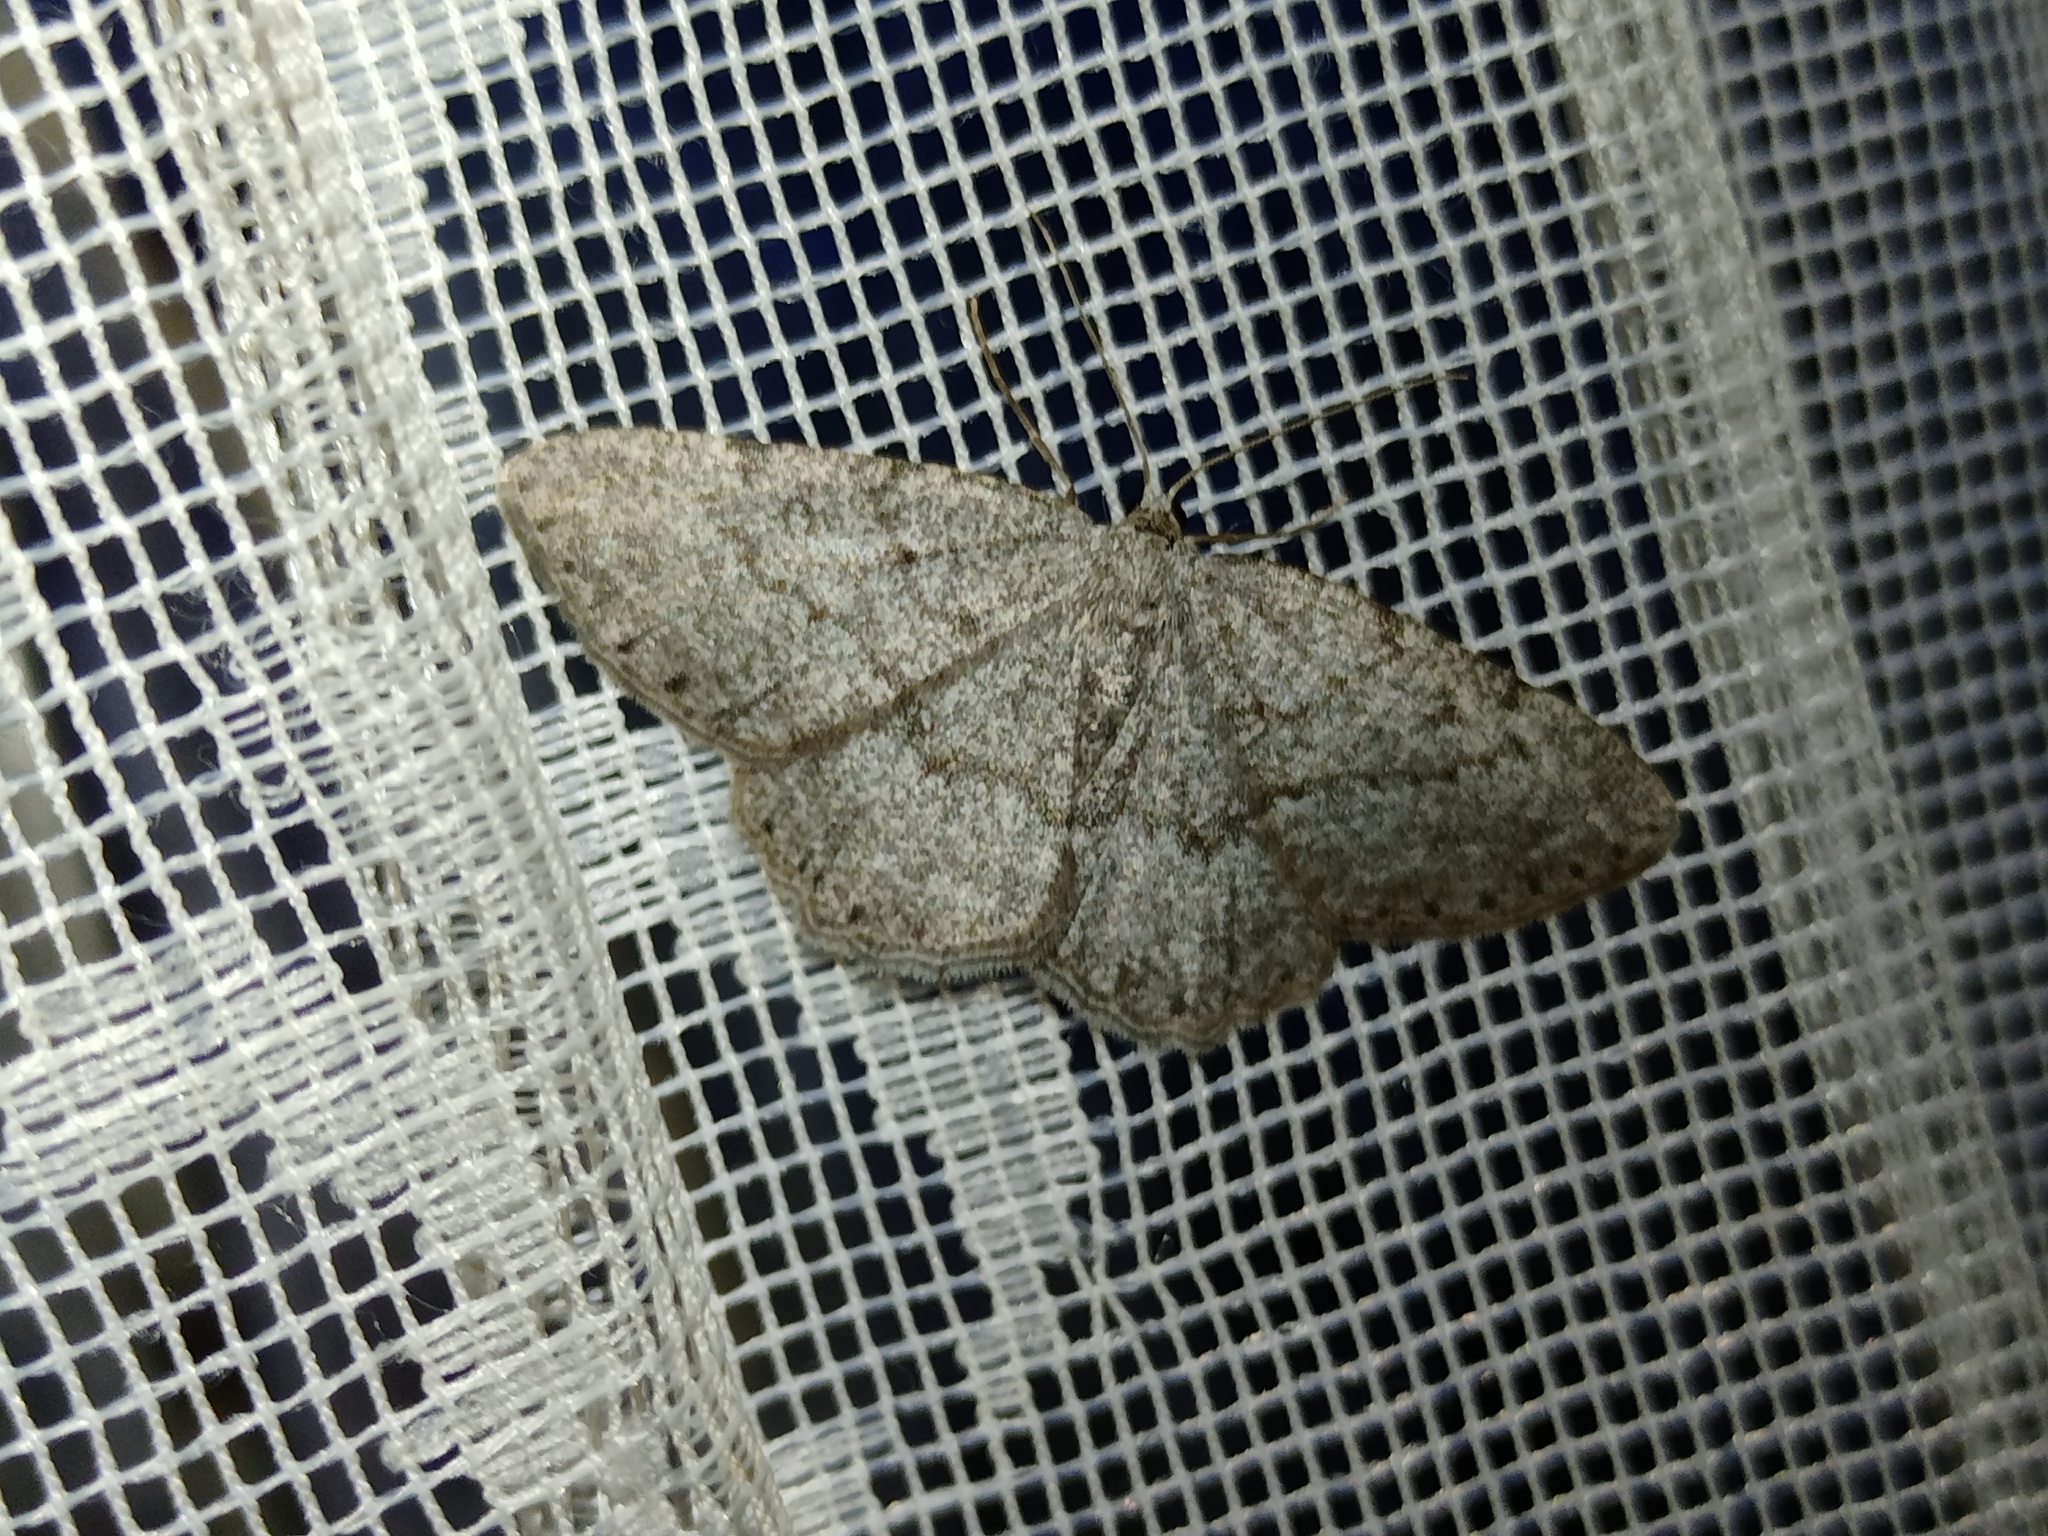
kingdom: Animalia
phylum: Arthropoda
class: Insecta
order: Lepidoptera
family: Geometridae
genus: Charissa
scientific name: Charissa ambiguata
